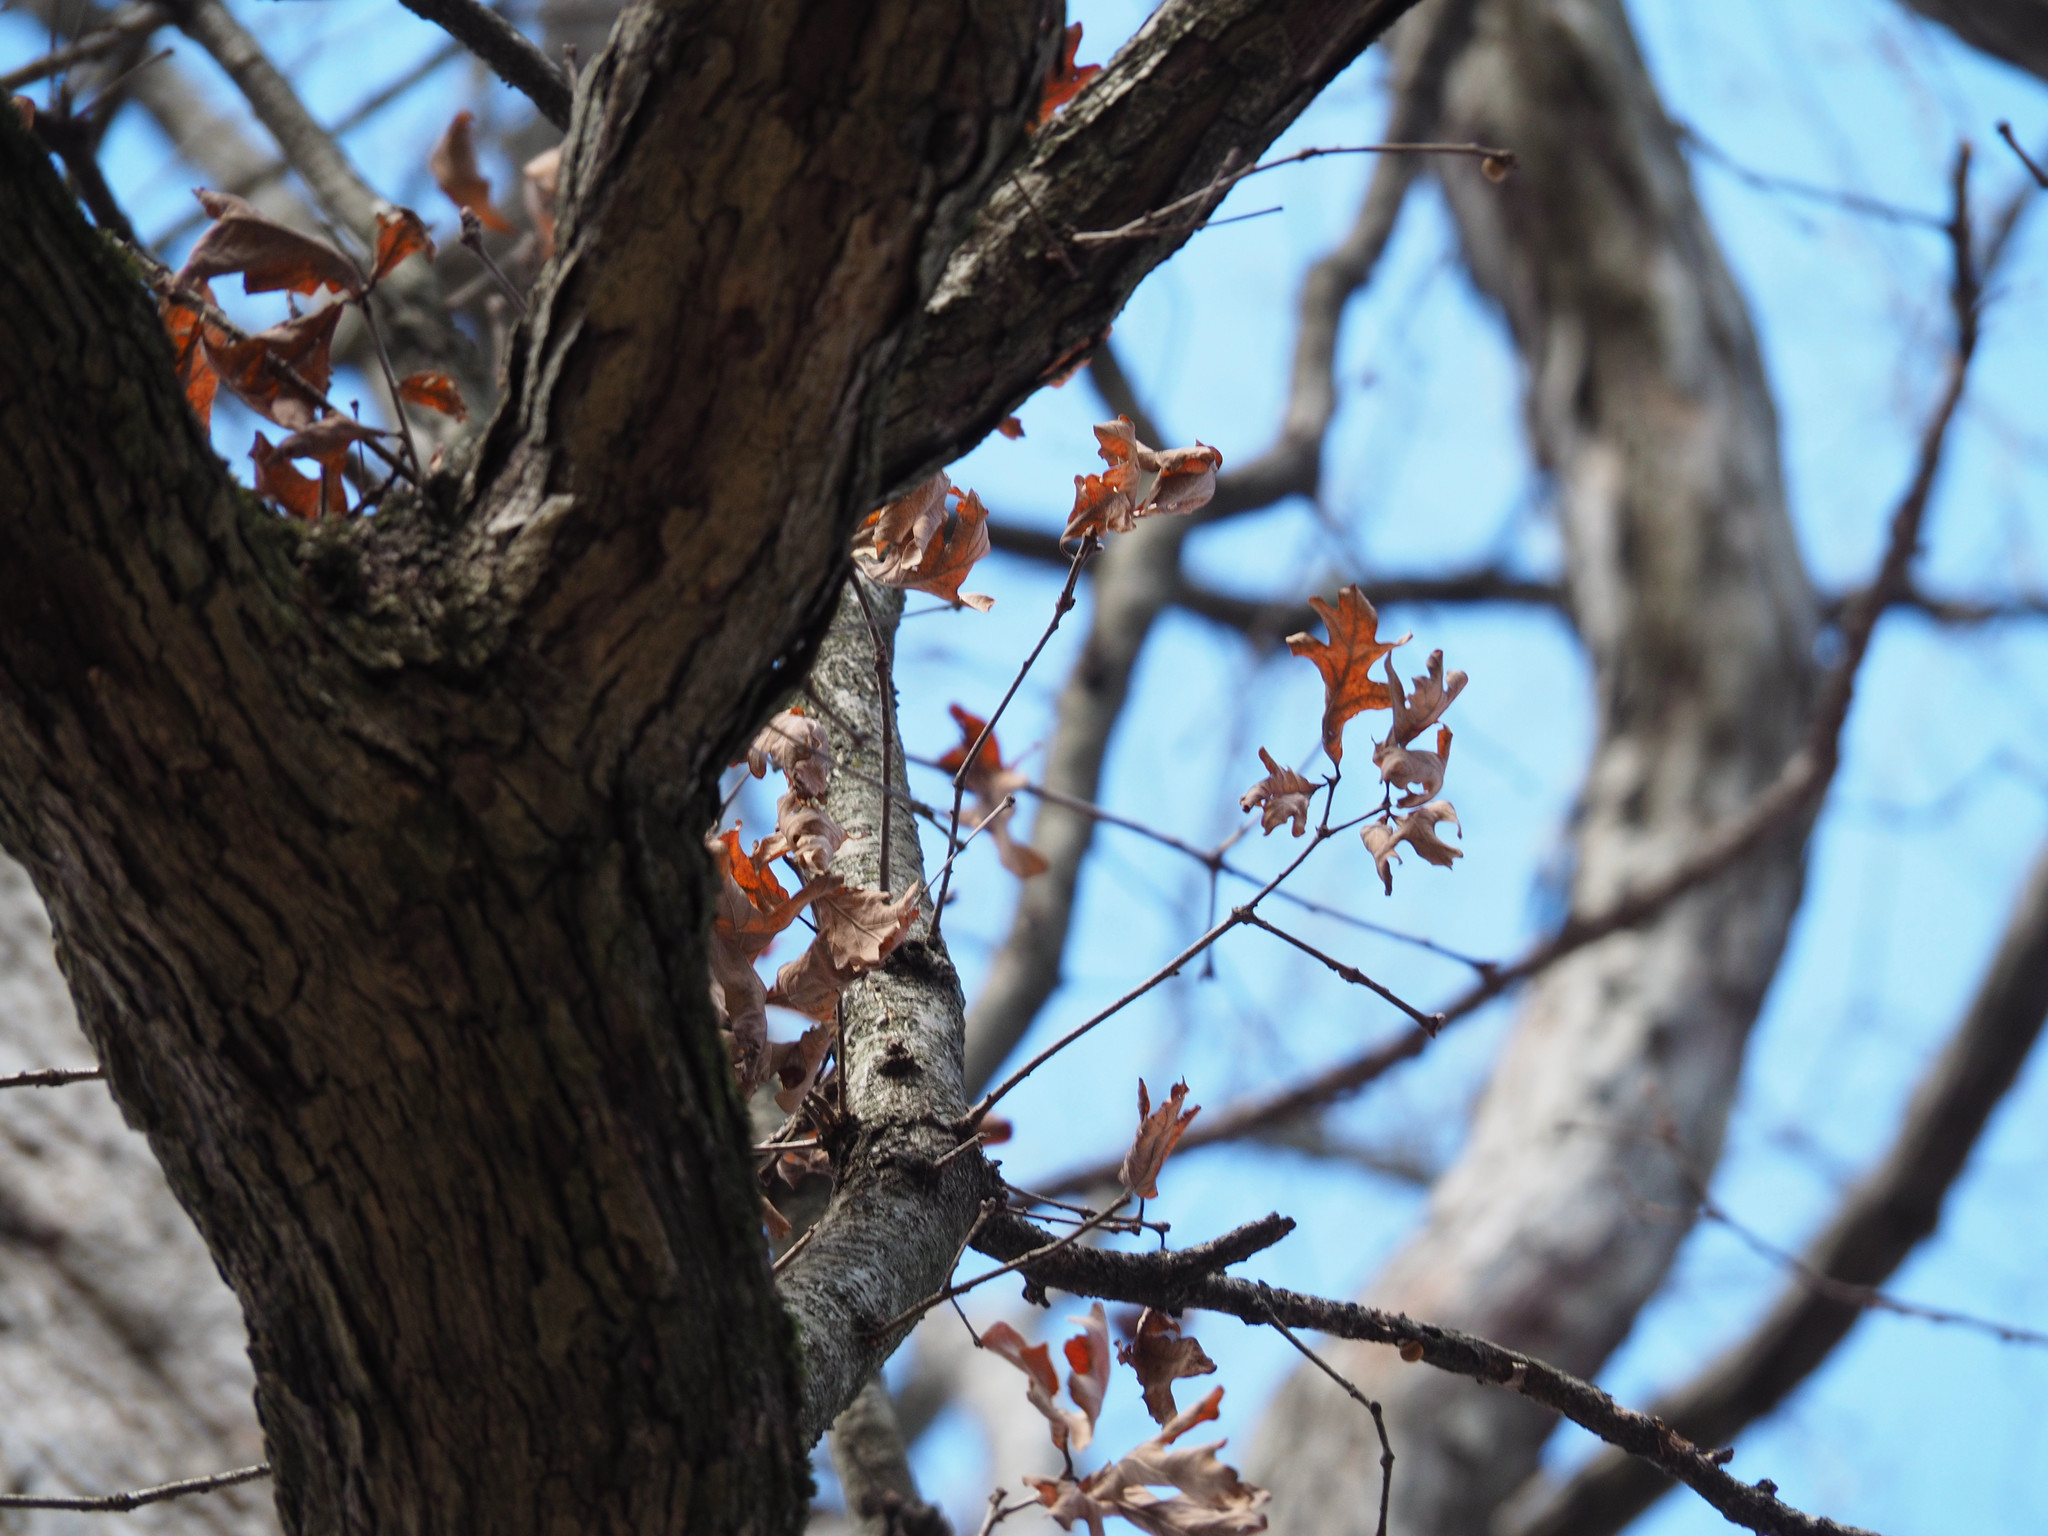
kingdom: Plantae
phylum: Tracheophyta
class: Magnoliopsida
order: Fagales
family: Fagaceae
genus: Quercus
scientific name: Quercus alba
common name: White oak
